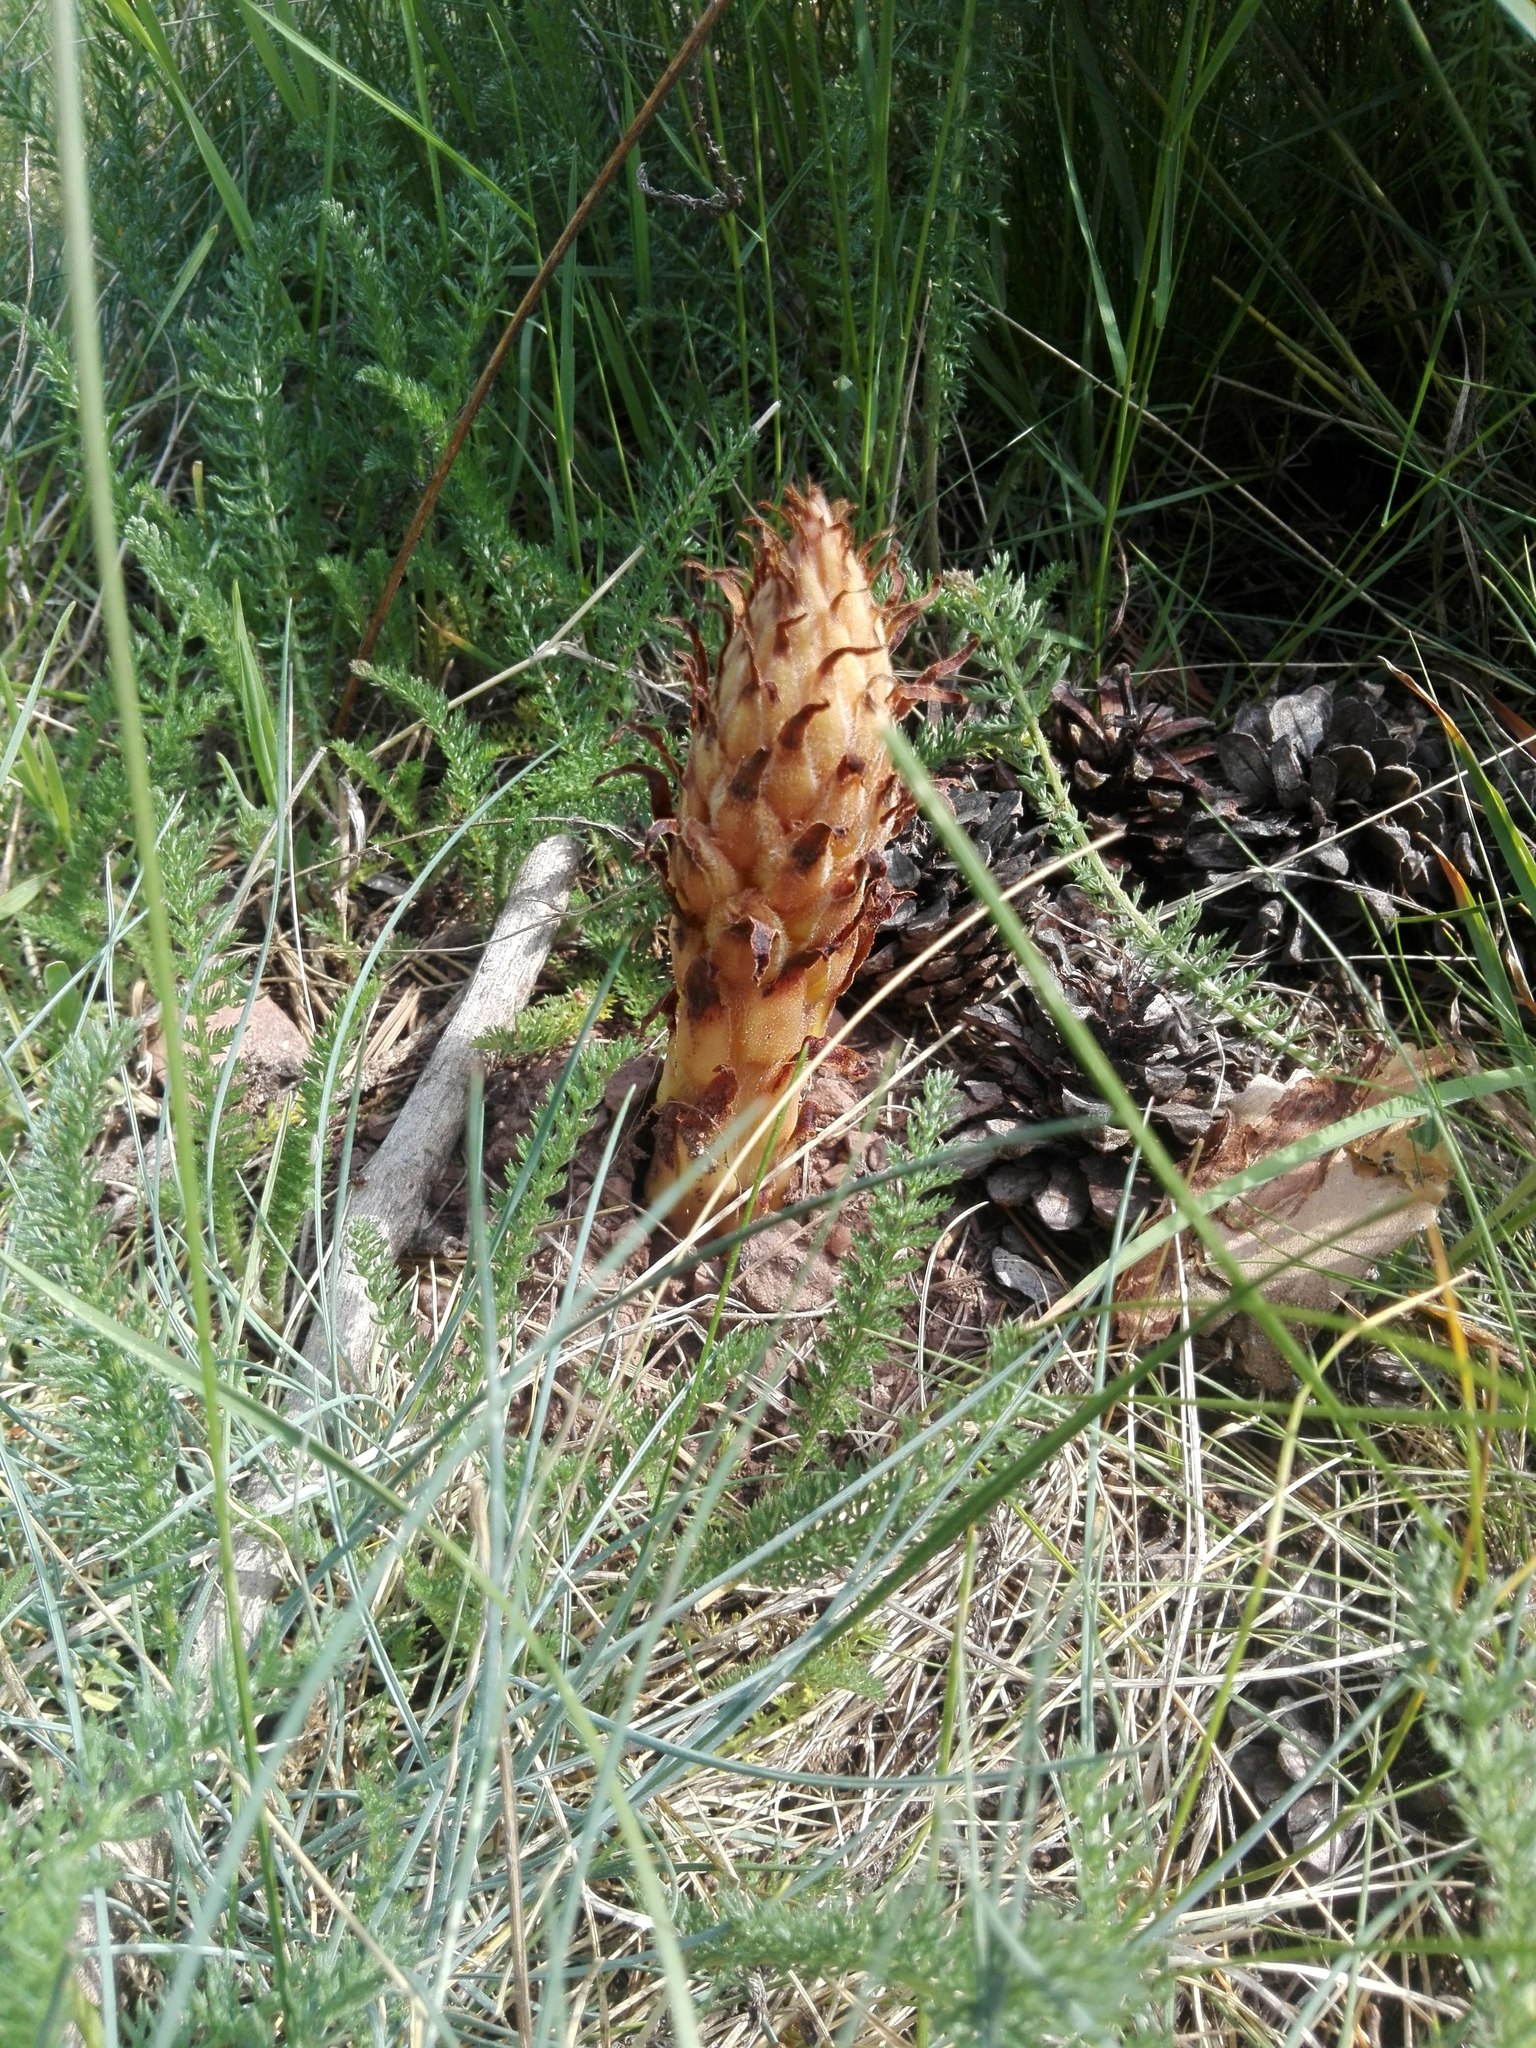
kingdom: Plantae
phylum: Tracheophyta
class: Magnoliopsida
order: Lamiales
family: Orobanchaceae
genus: Orobanche
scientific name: Orobanche rapum-genistae
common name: Greater broomrape
